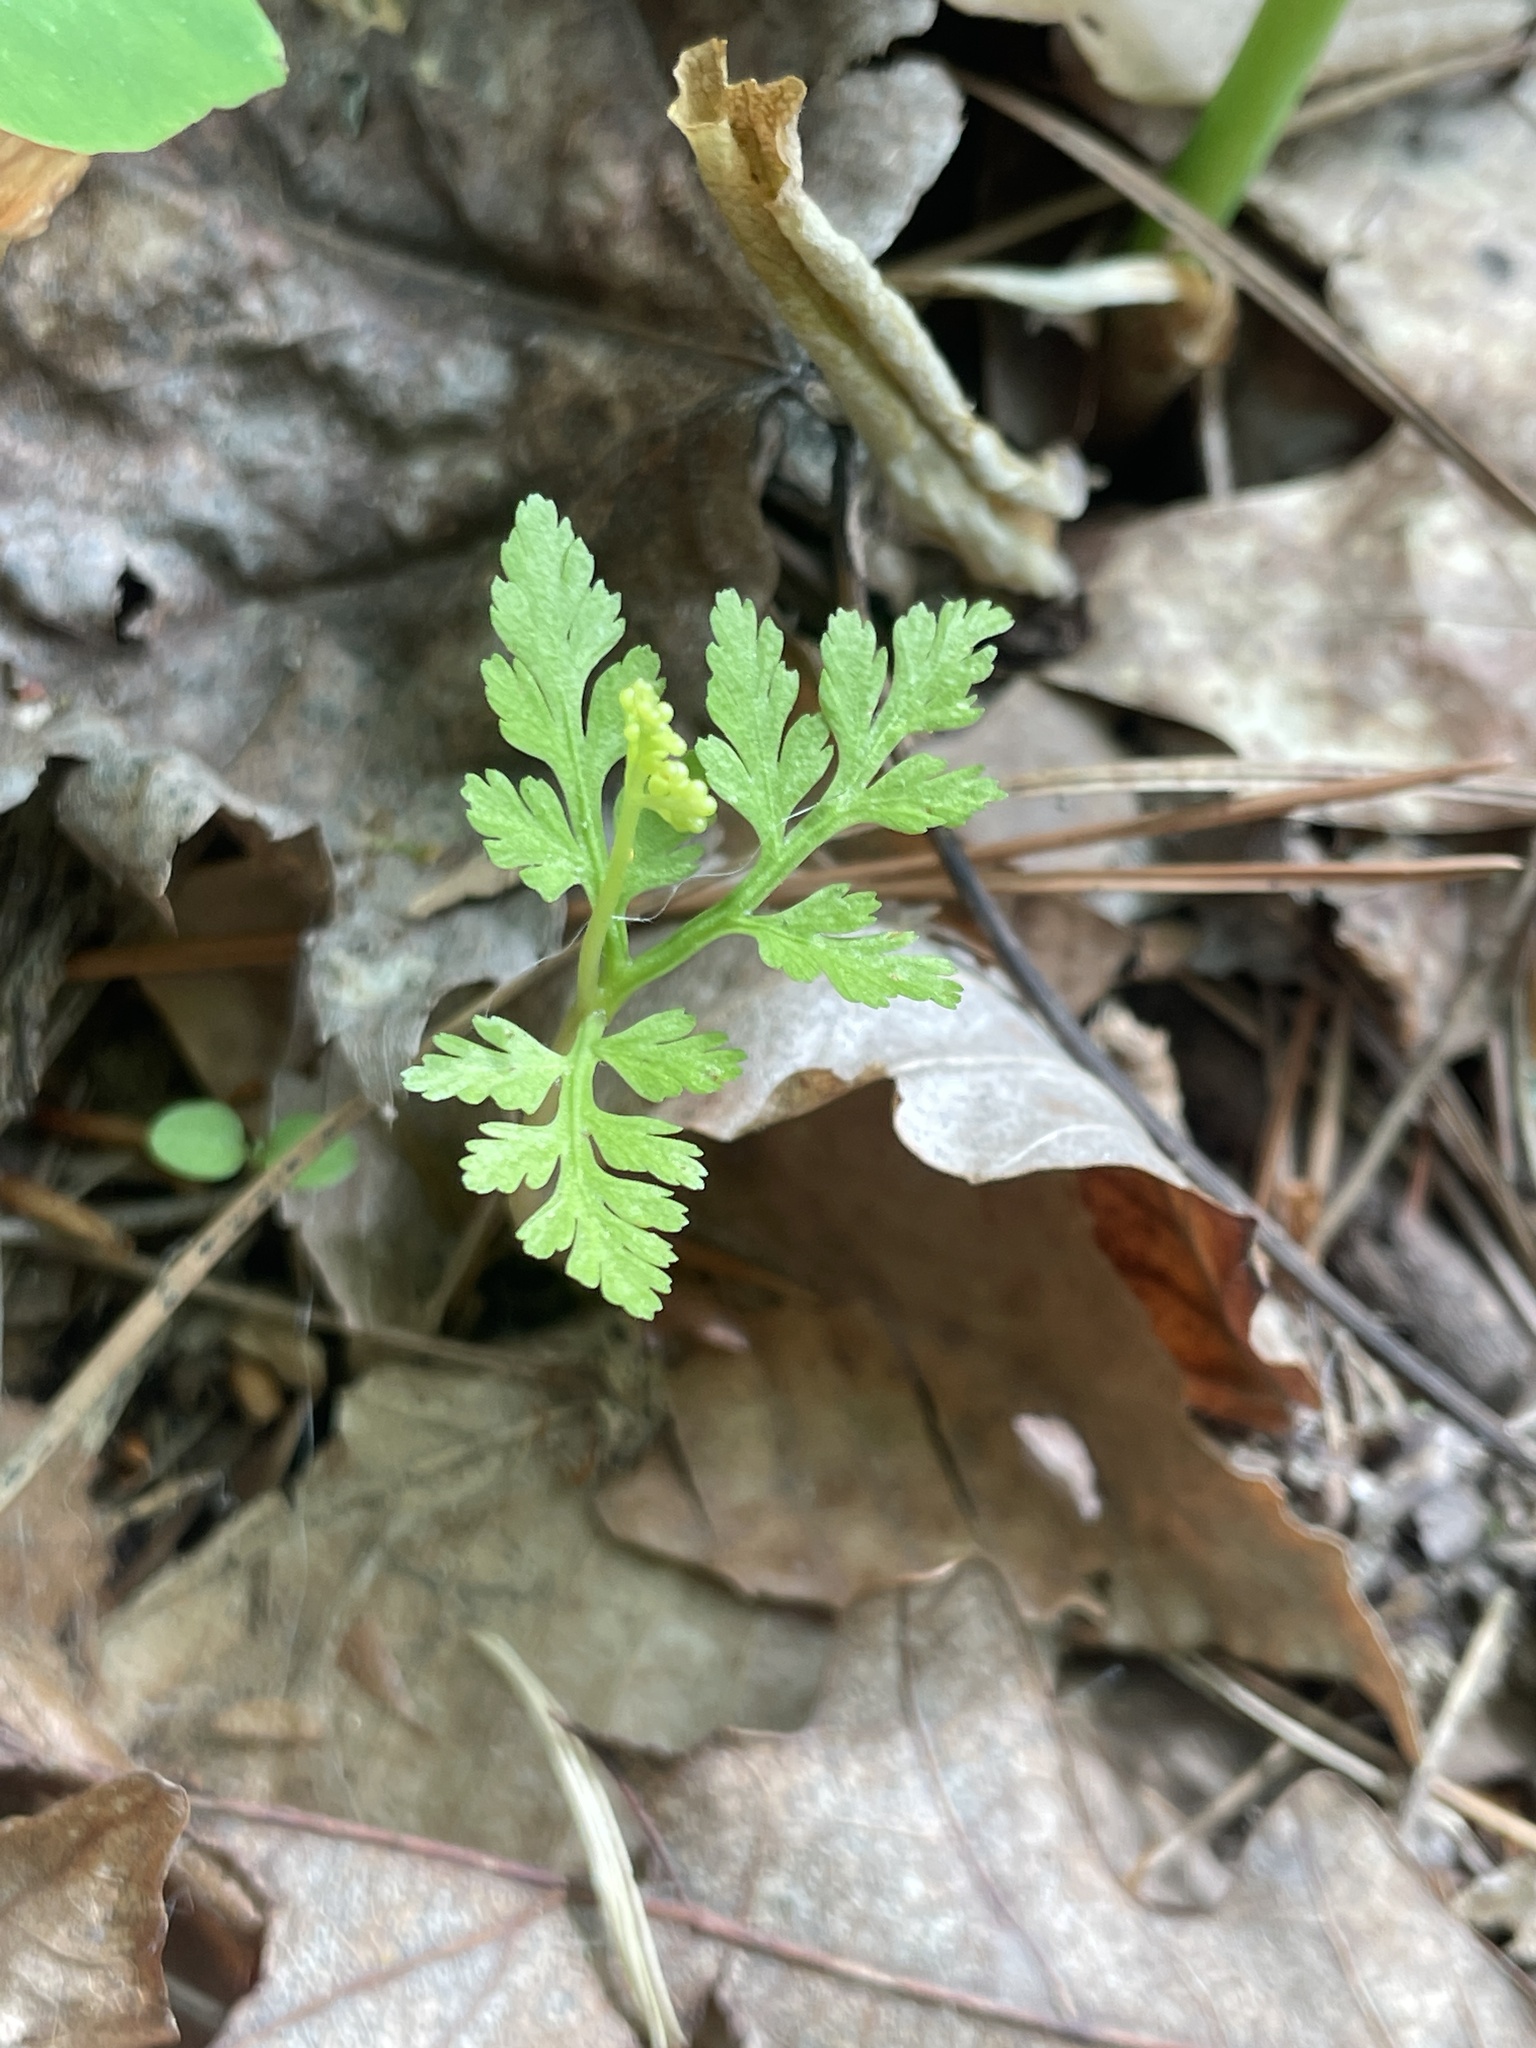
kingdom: Plantae
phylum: Tracheophyta
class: Polypodiopsida
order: Ophioglossales
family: Ophioglossaceae
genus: Botrypus
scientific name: Botrypus virginianus
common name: Common grapefern
